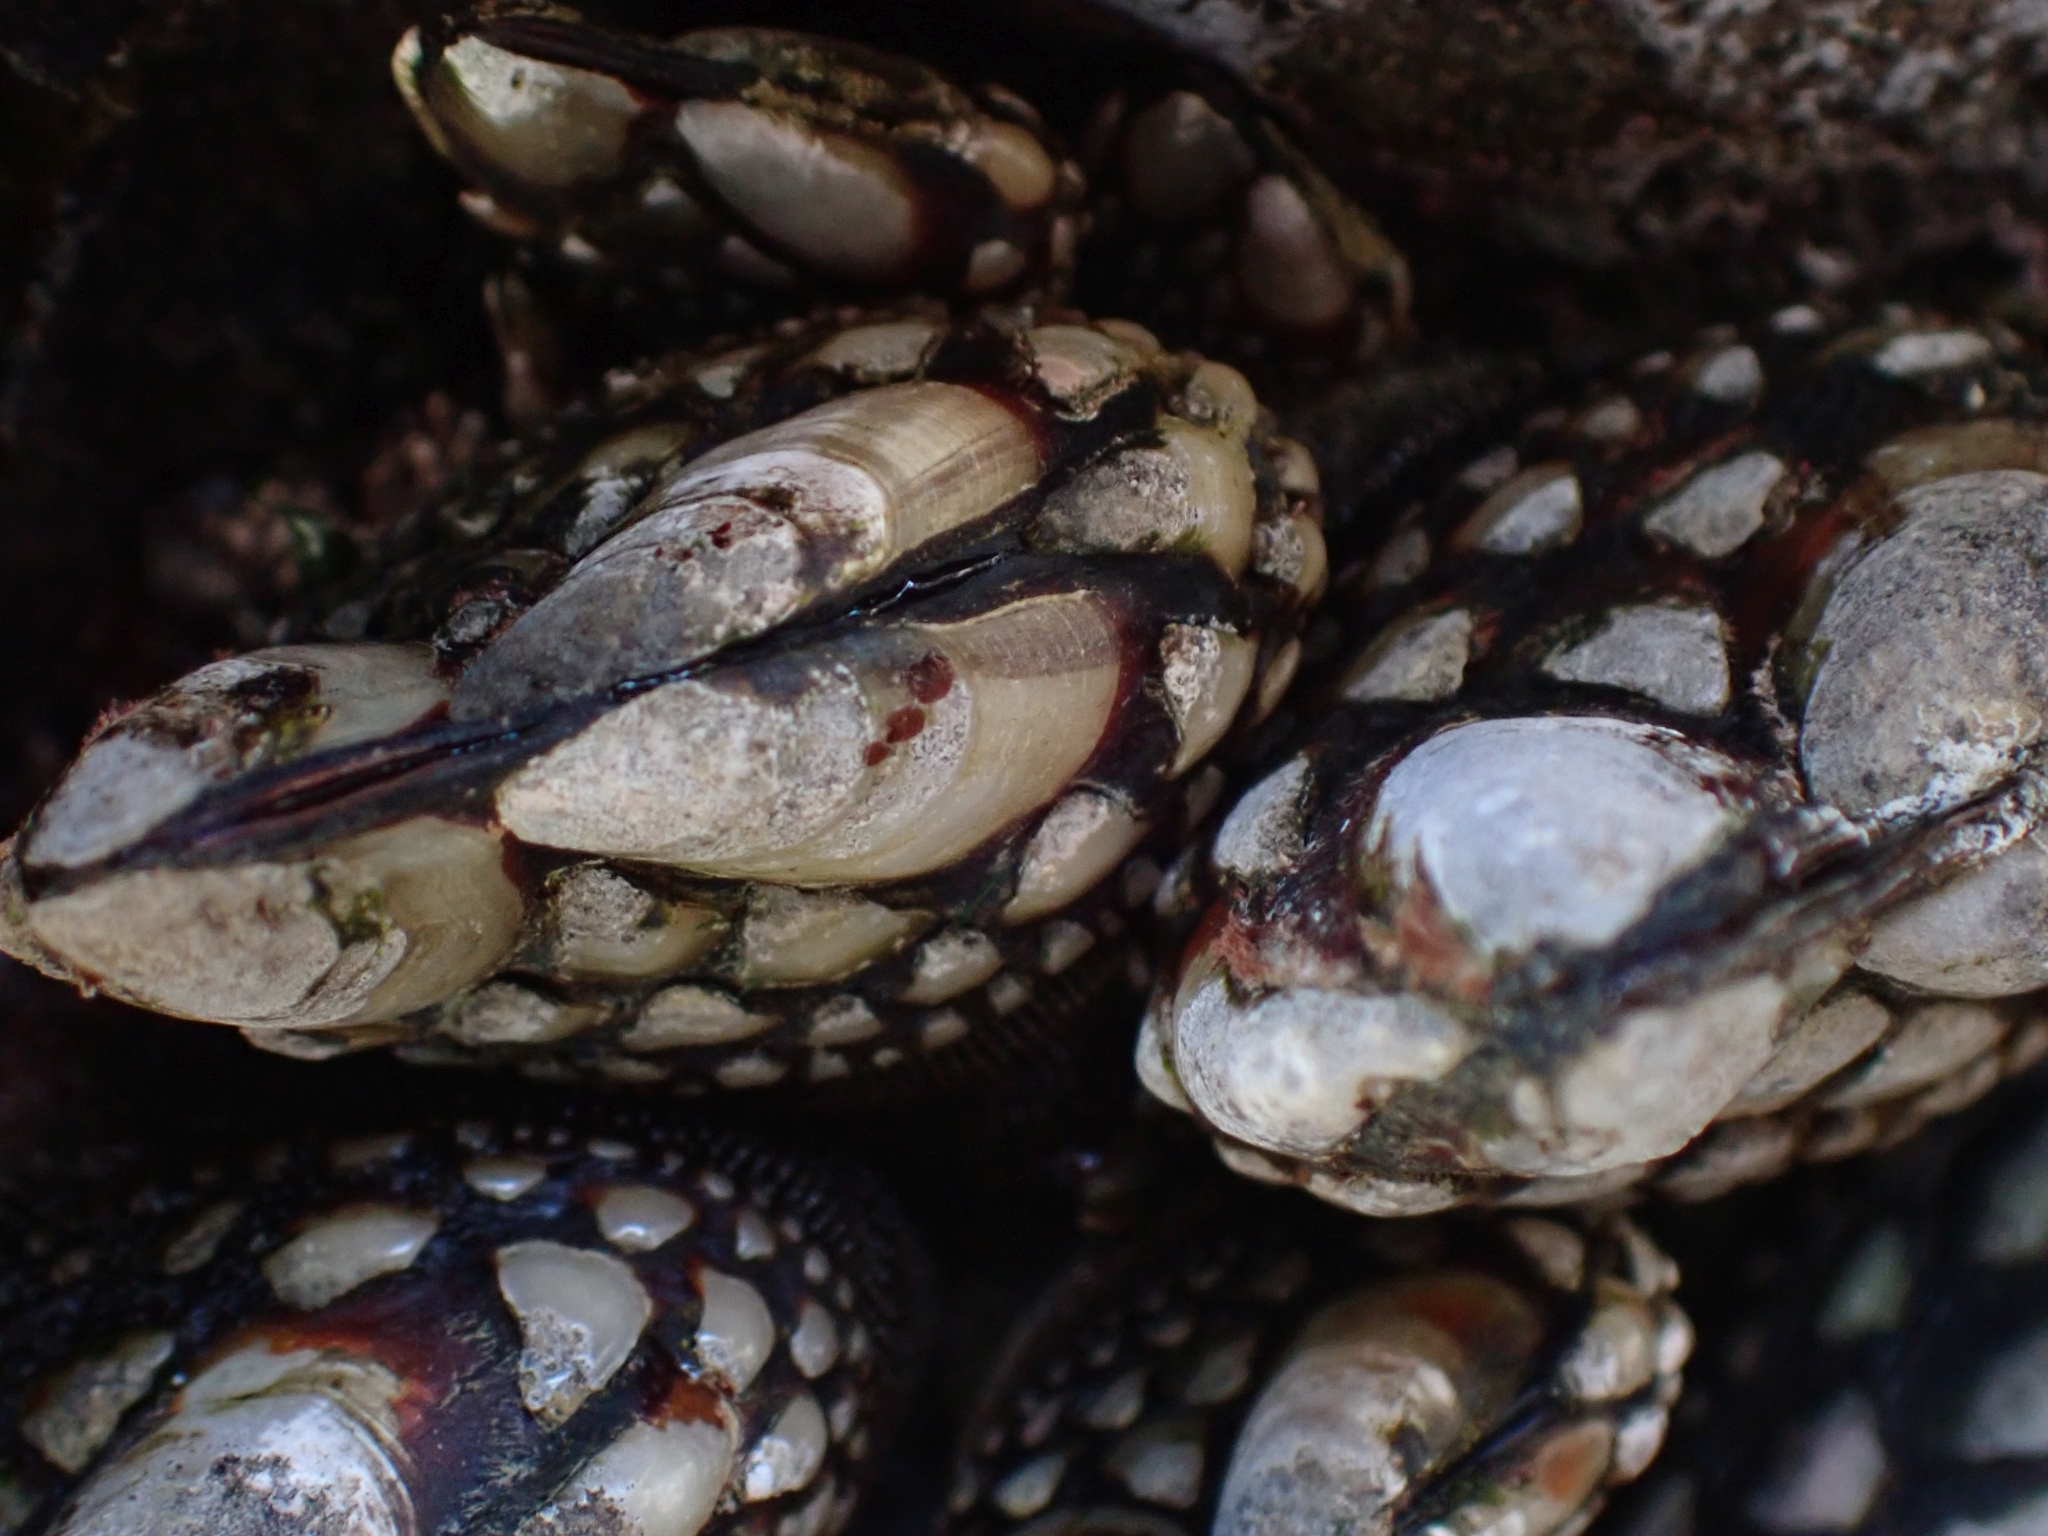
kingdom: Animalia
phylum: Arthropoda
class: Maxillopoda
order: Pedunculata
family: Pollicipedidae
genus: Pollicipes
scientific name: Pollicipes polymerus
